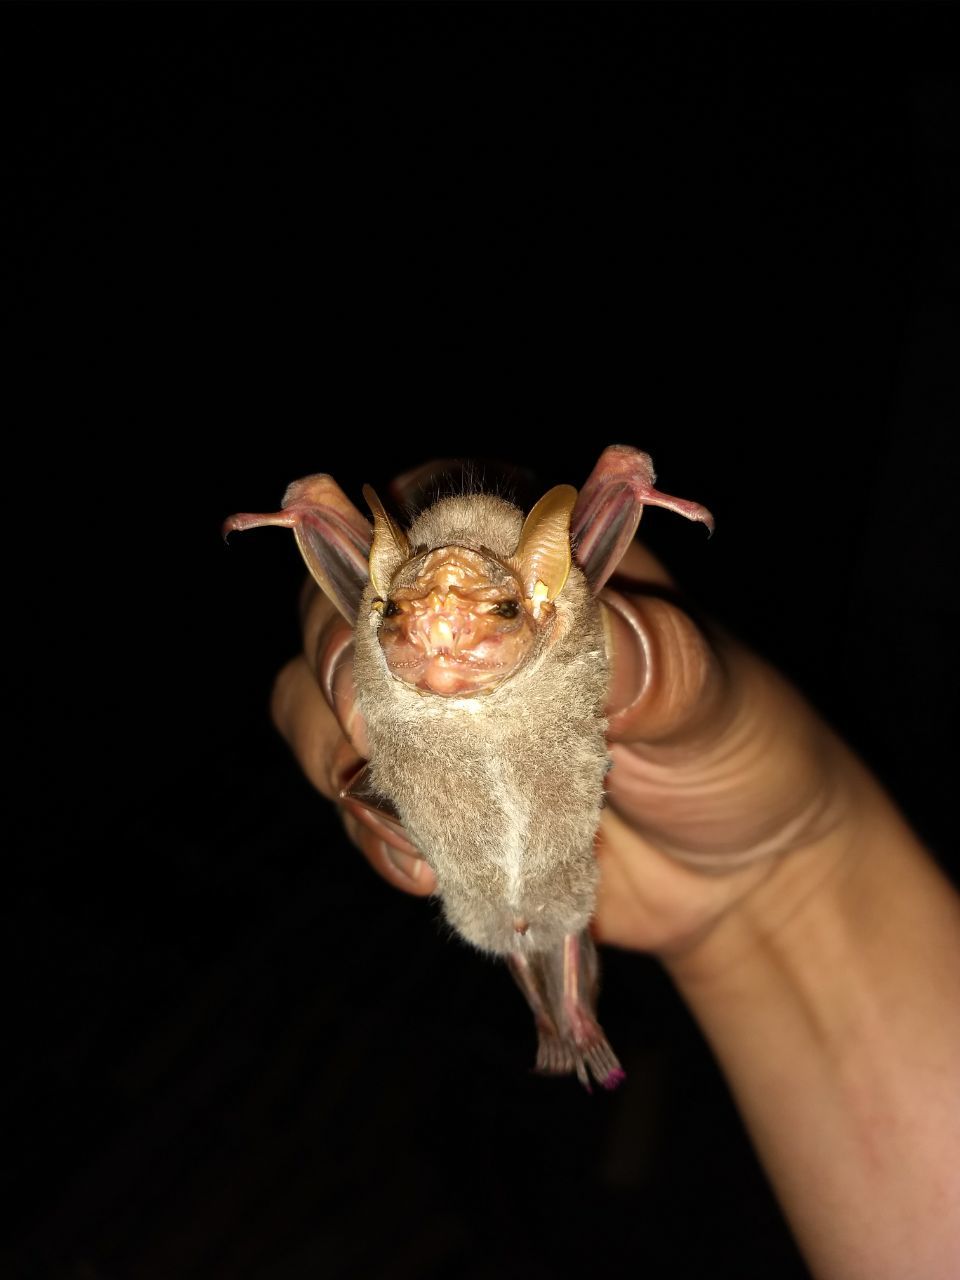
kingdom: Animalia
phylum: Chordata
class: Mammalia
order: Chiroptera
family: Phyllostomidae
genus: Centurio
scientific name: Centurio senex
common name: Wrinkle-faced bat
